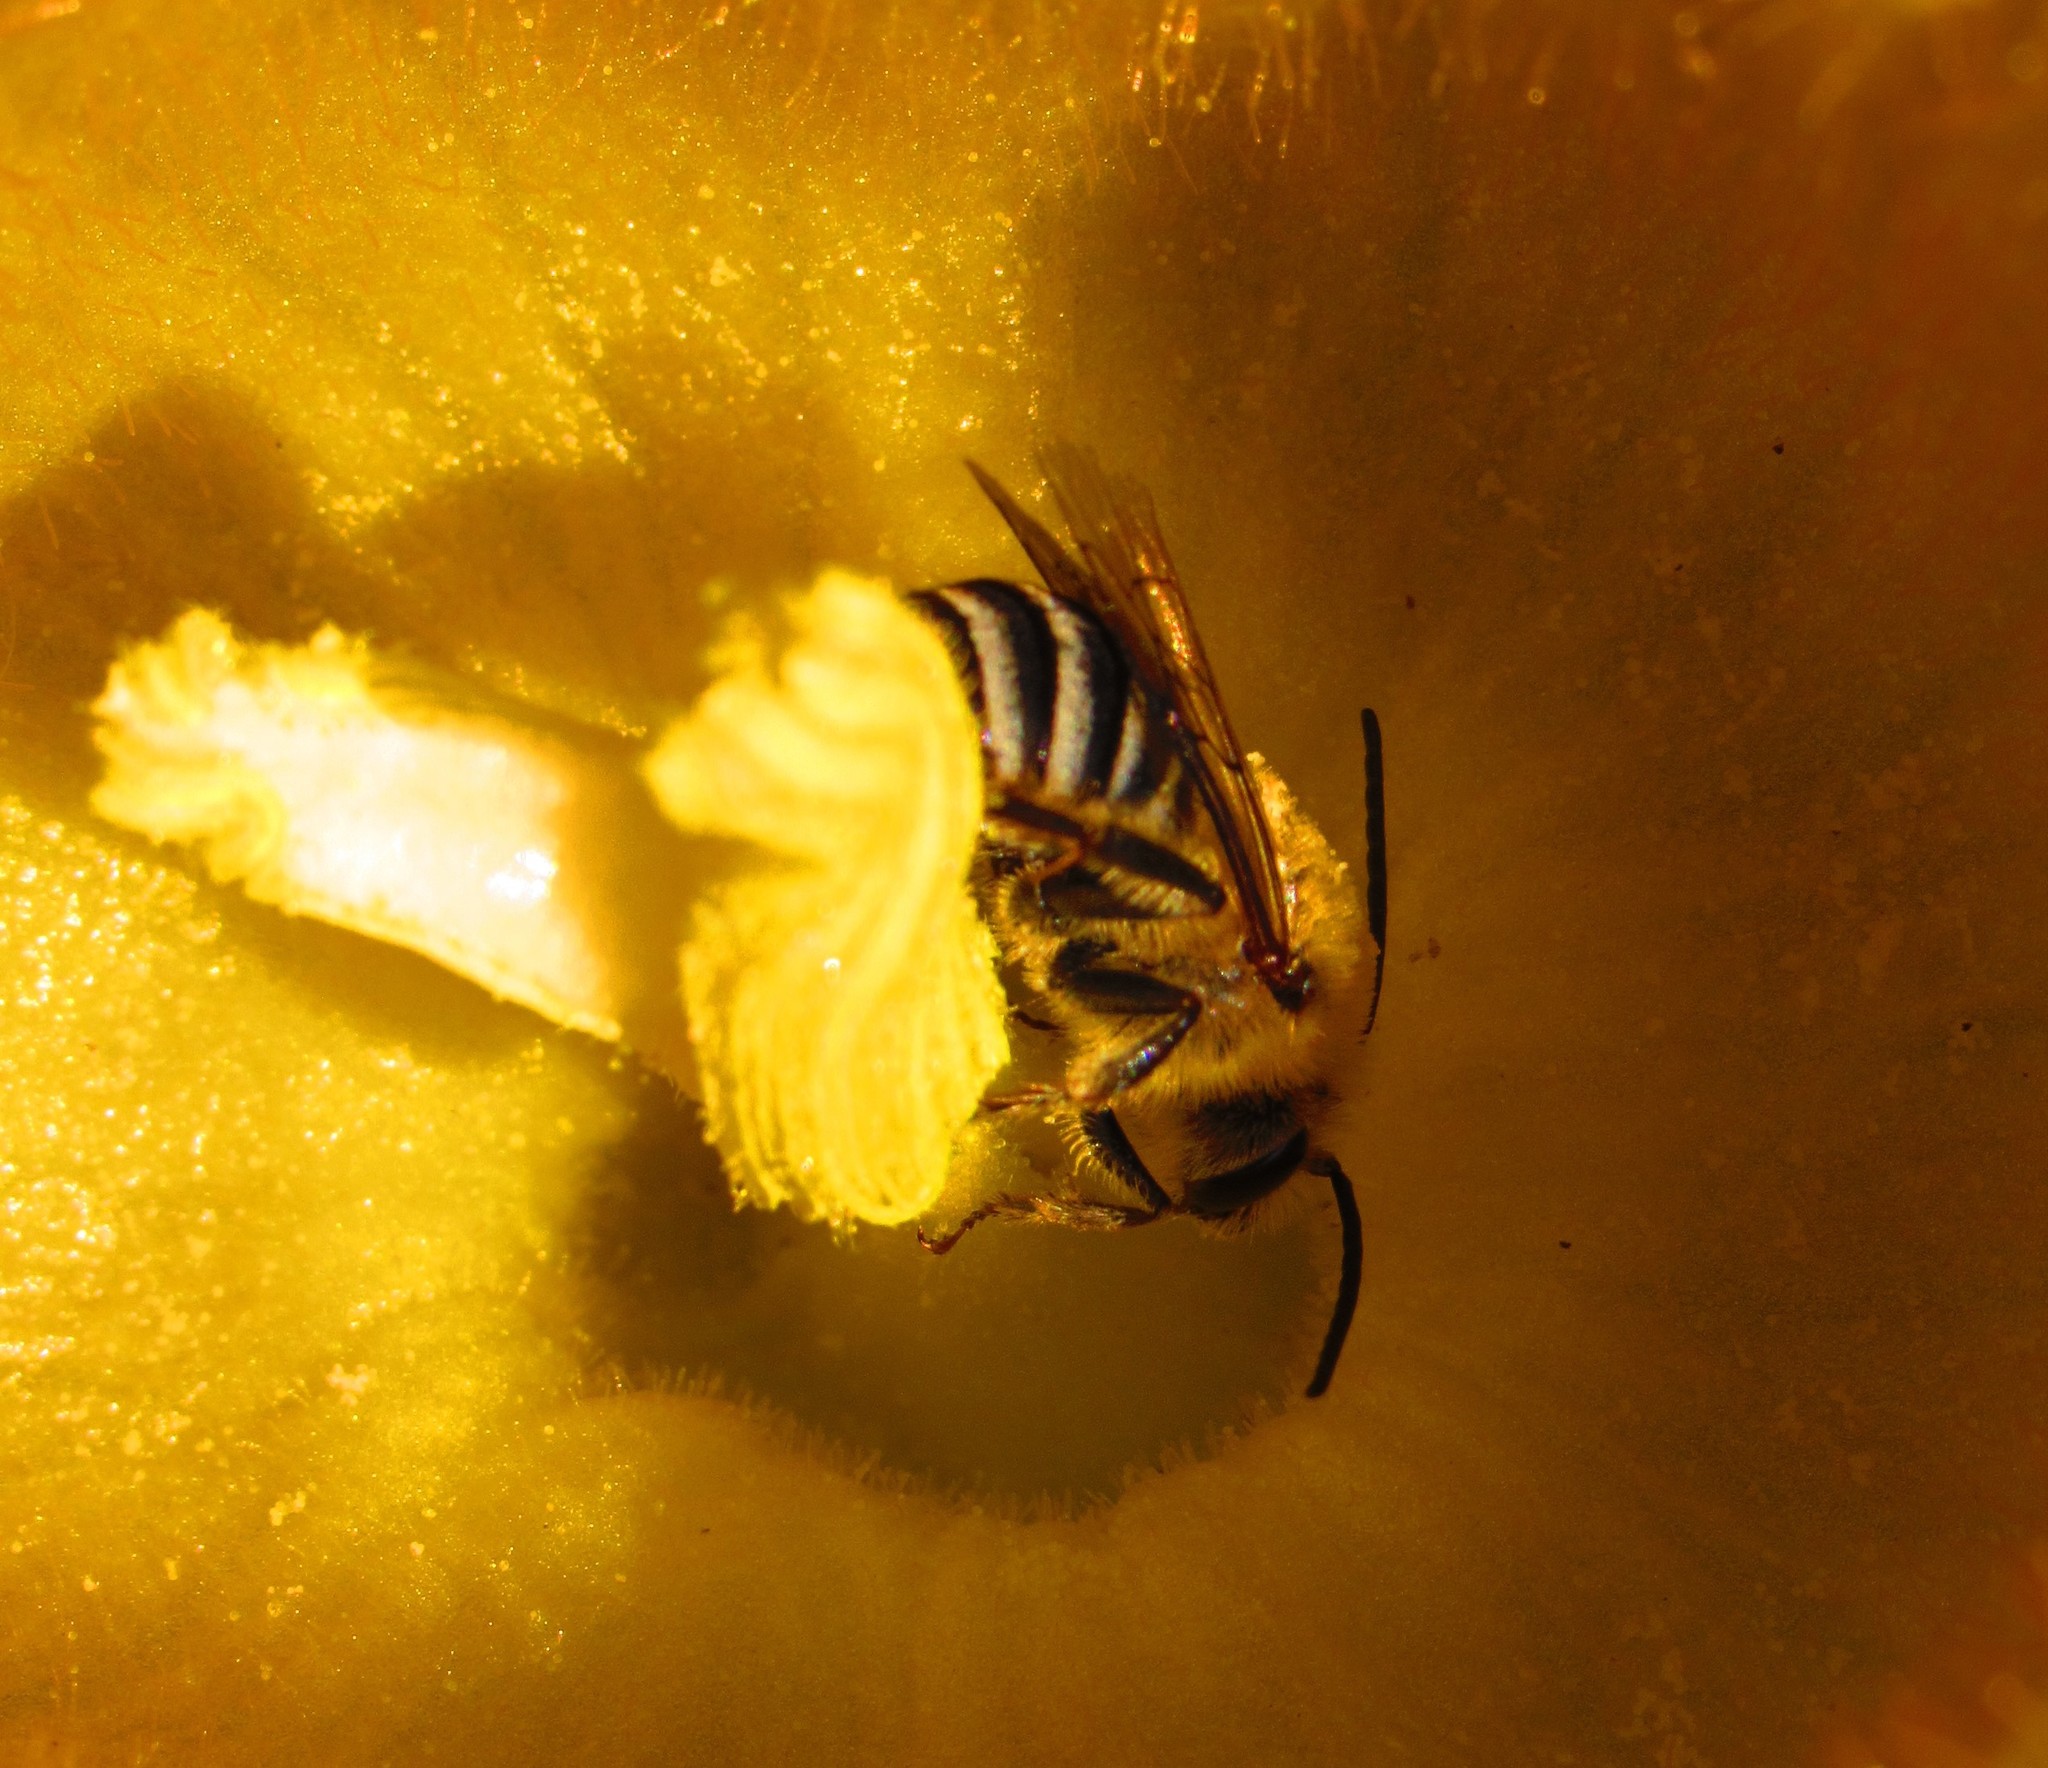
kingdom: Animalia
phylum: Arthropoda
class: Insecta
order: Hymenoptera
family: Apidae
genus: Peponapis
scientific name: Peponapis pruinosa
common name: Pruinose squash bee
